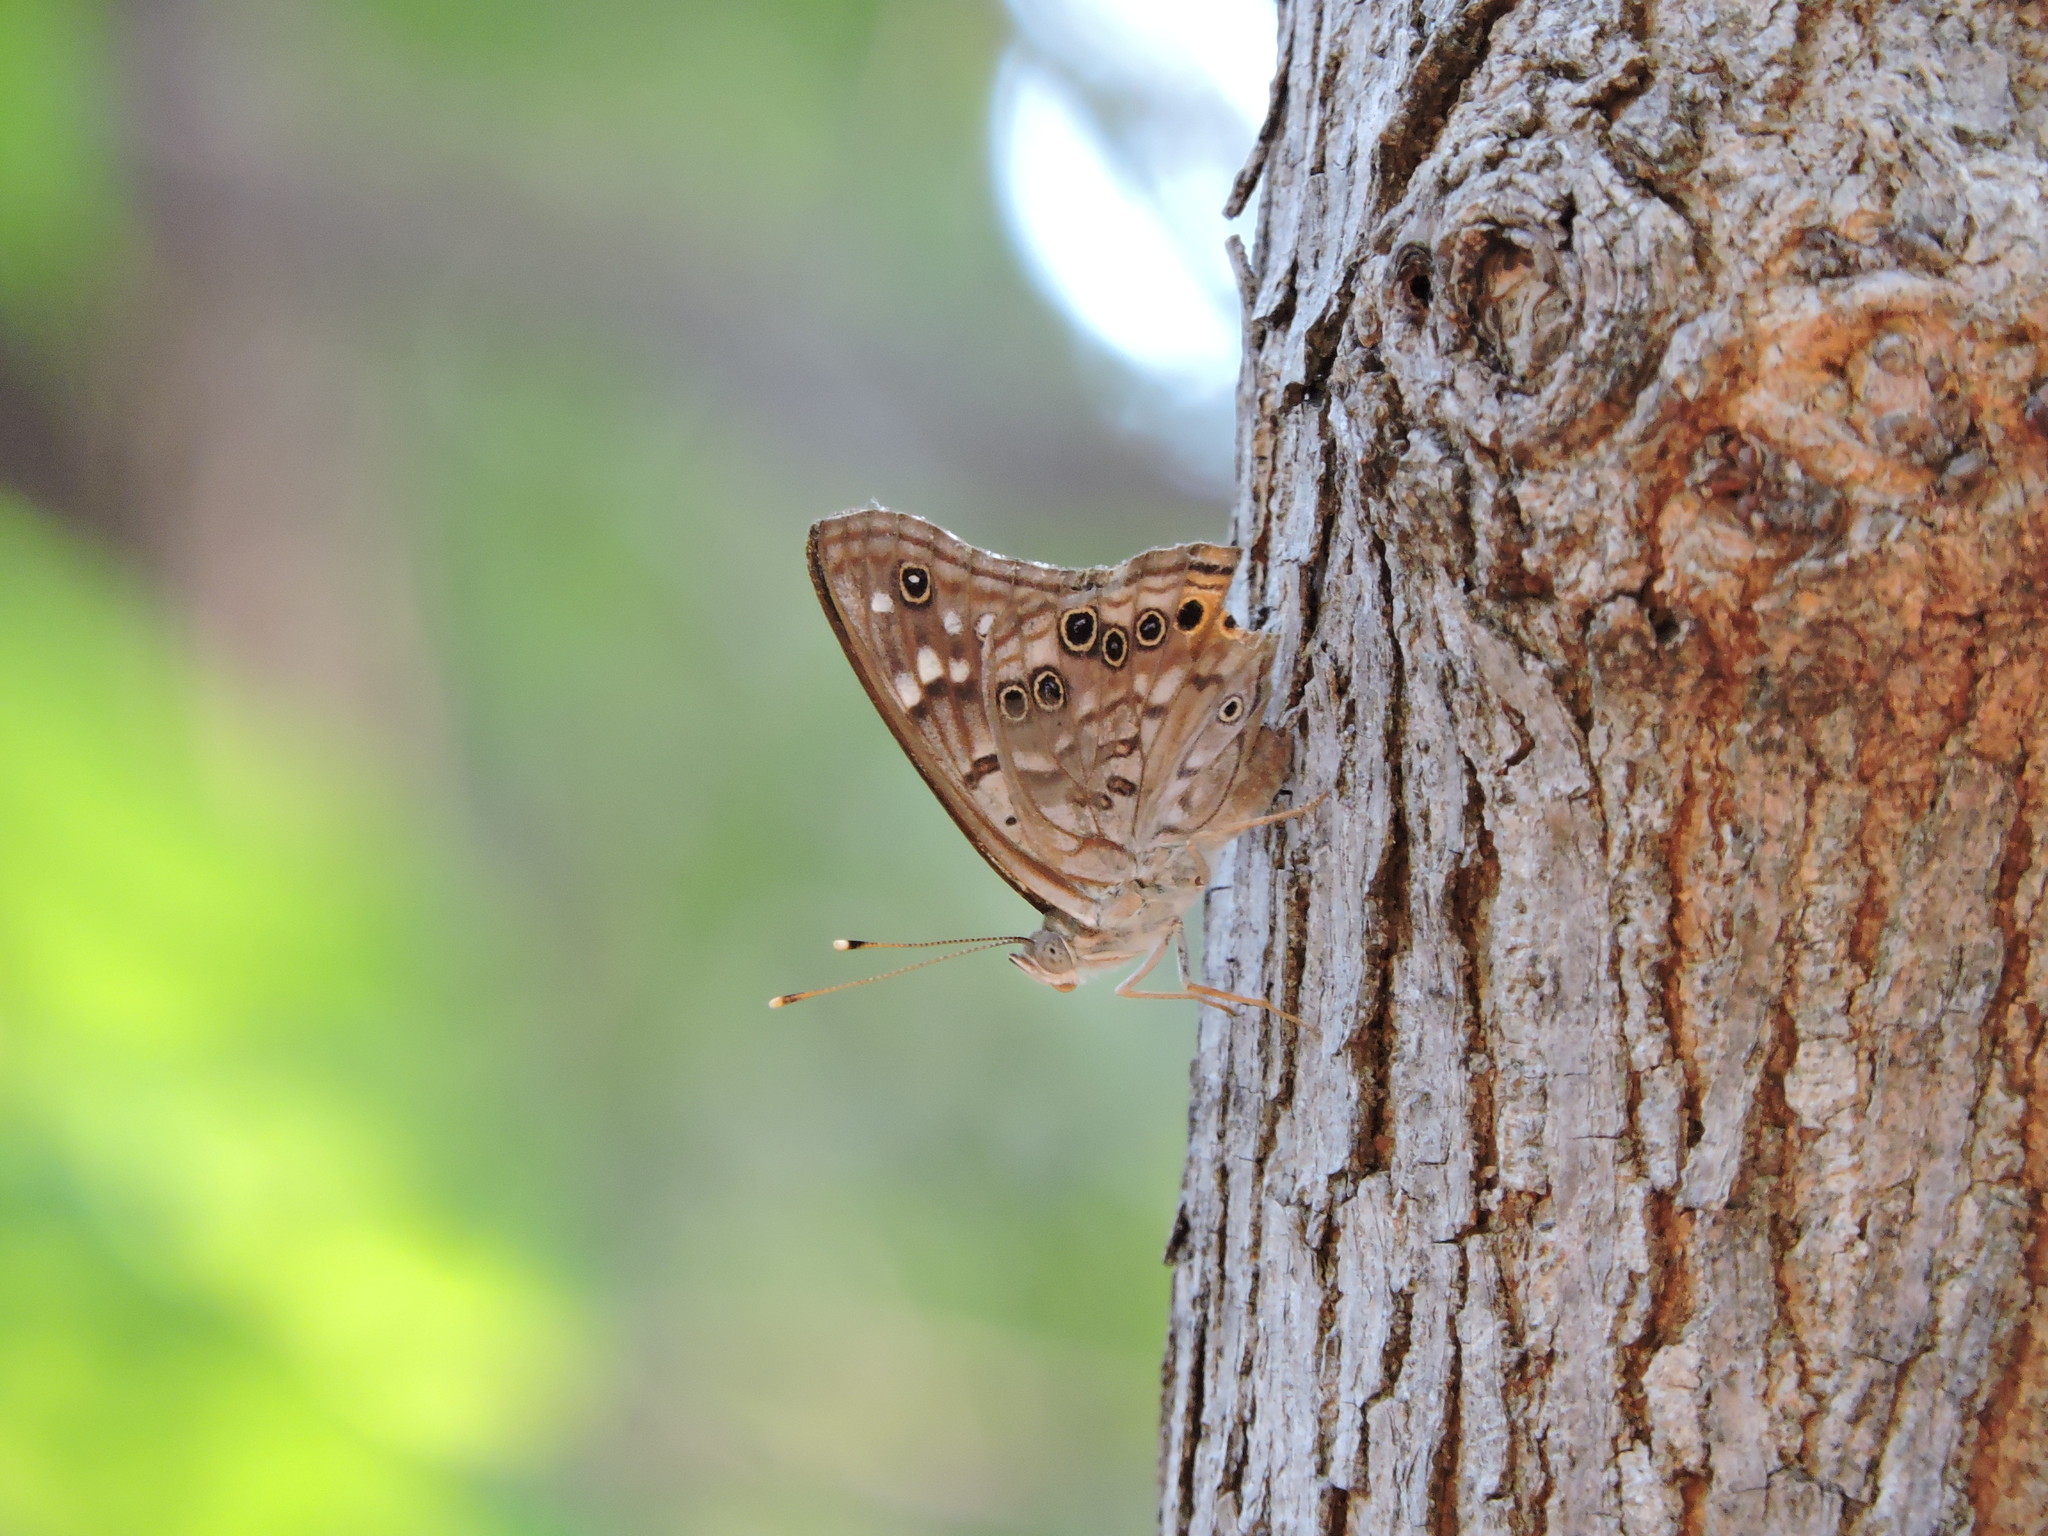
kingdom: Animalia
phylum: Arthropoda
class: Insecta
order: Lepidoptera
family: Nymphalidae
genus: Asterocampa
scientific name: Asterocampa celtis
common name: Hackberry emperor
